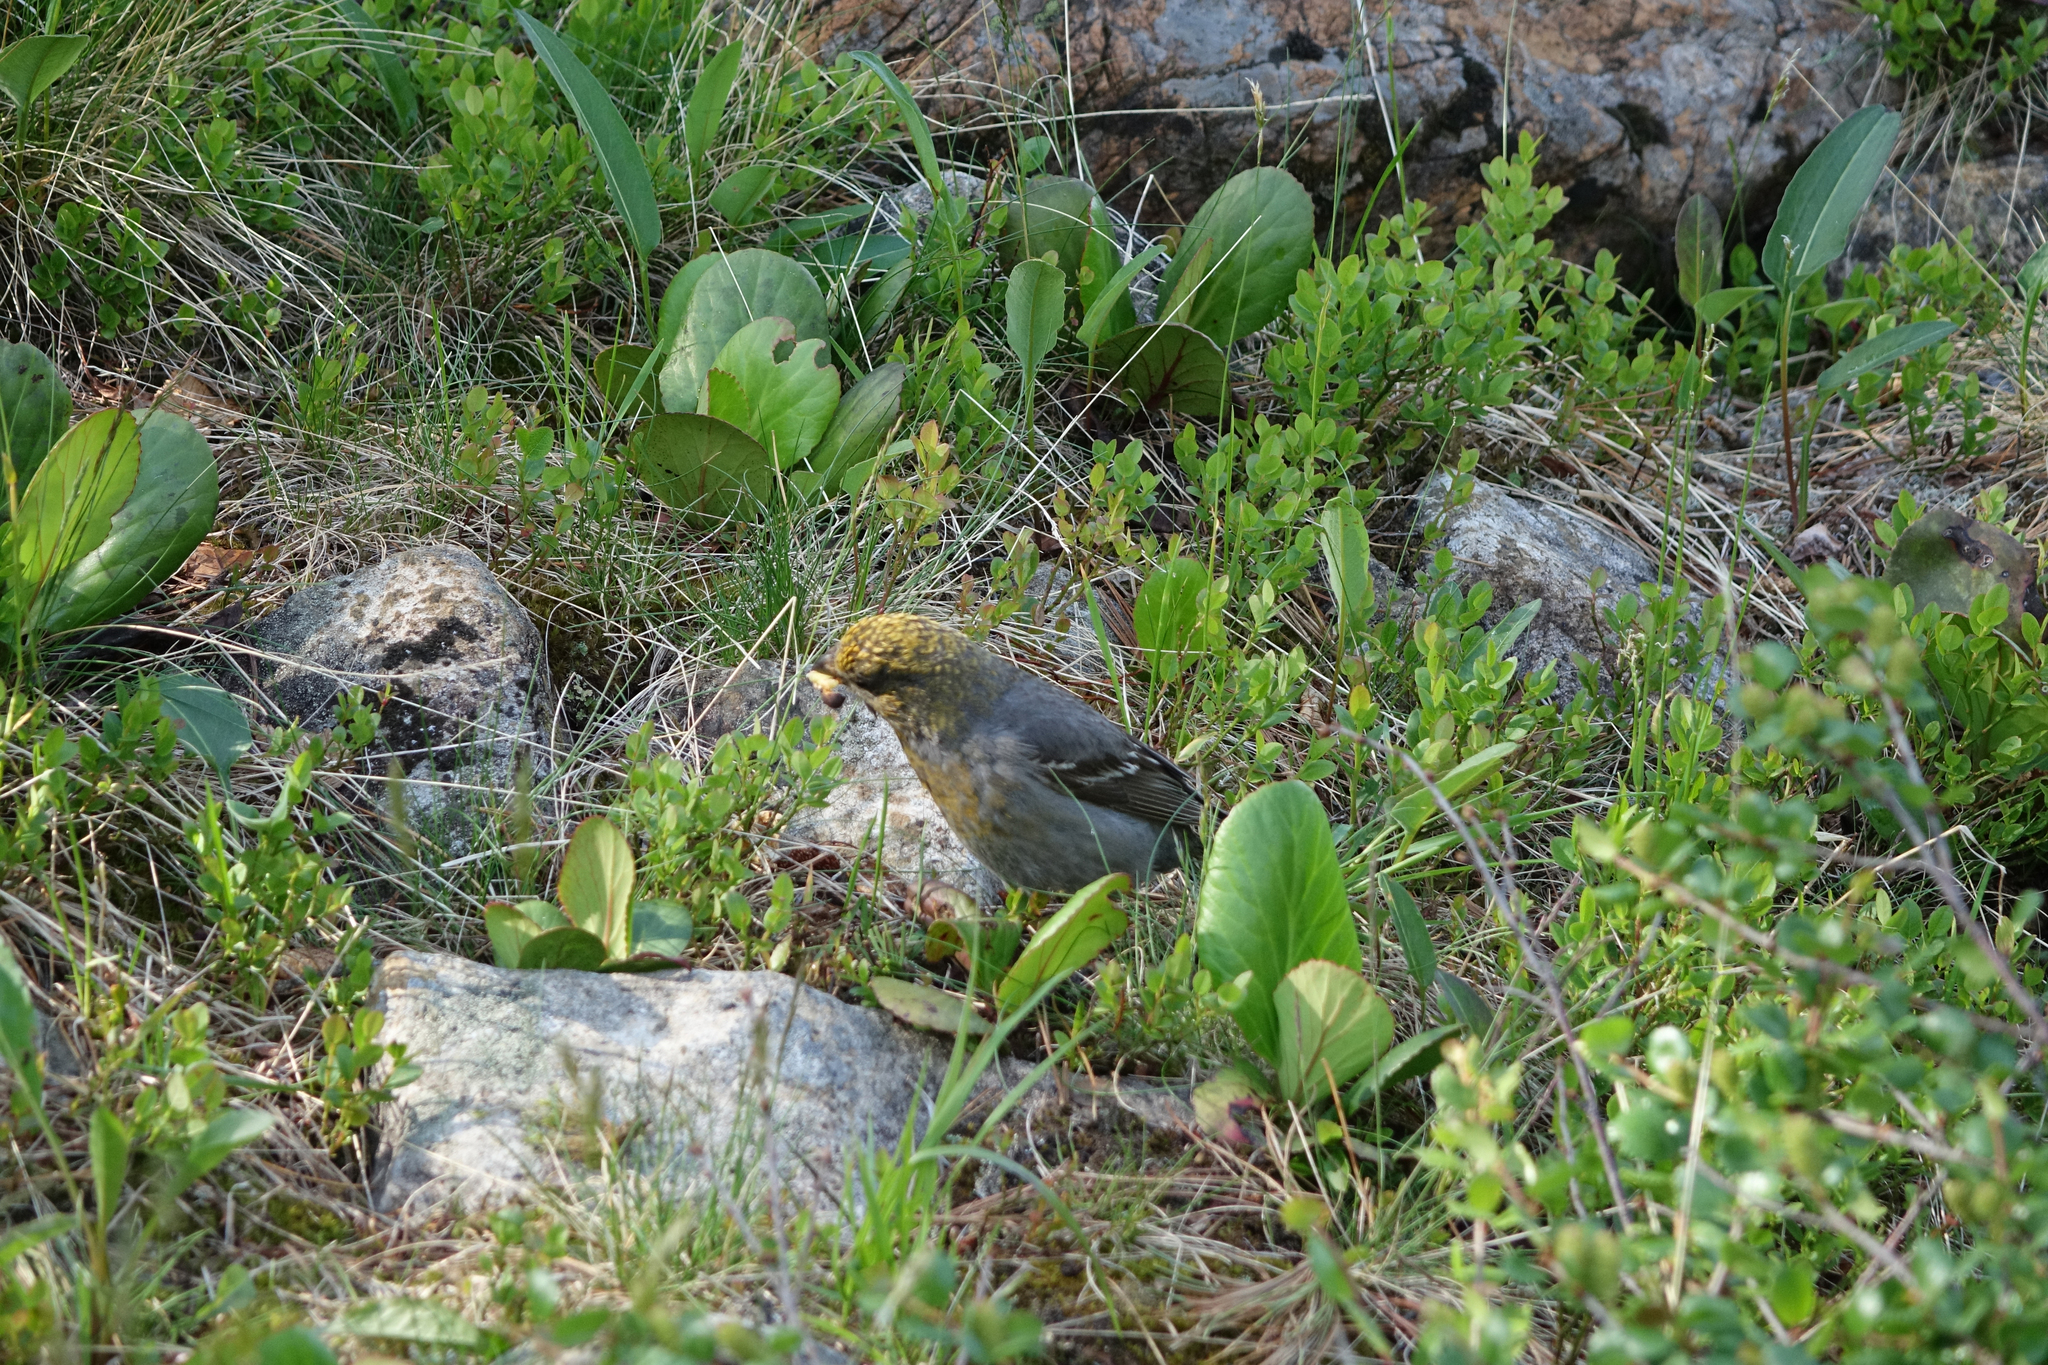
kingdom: Plantae
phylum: Tracheophyta
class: Magnoliopsida
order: Saxifragales
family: Saxifragaceae
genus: Bergenia
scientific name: Bergenia crassifolia
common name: Elephant-ears
